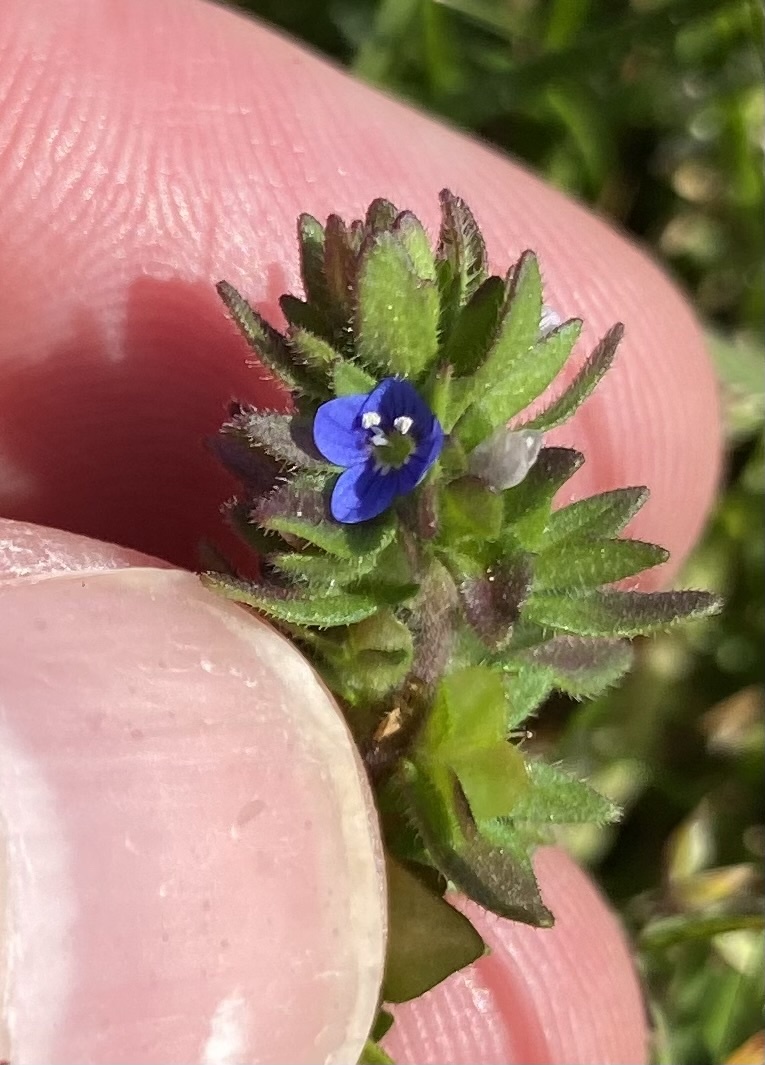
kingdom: Plantae
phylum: Tracheophyta
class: Magnoliopsida
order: Lamiales
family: Plantaginaceae
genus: Veronica
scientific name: Veronica arvensis
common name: Corn speedwell
